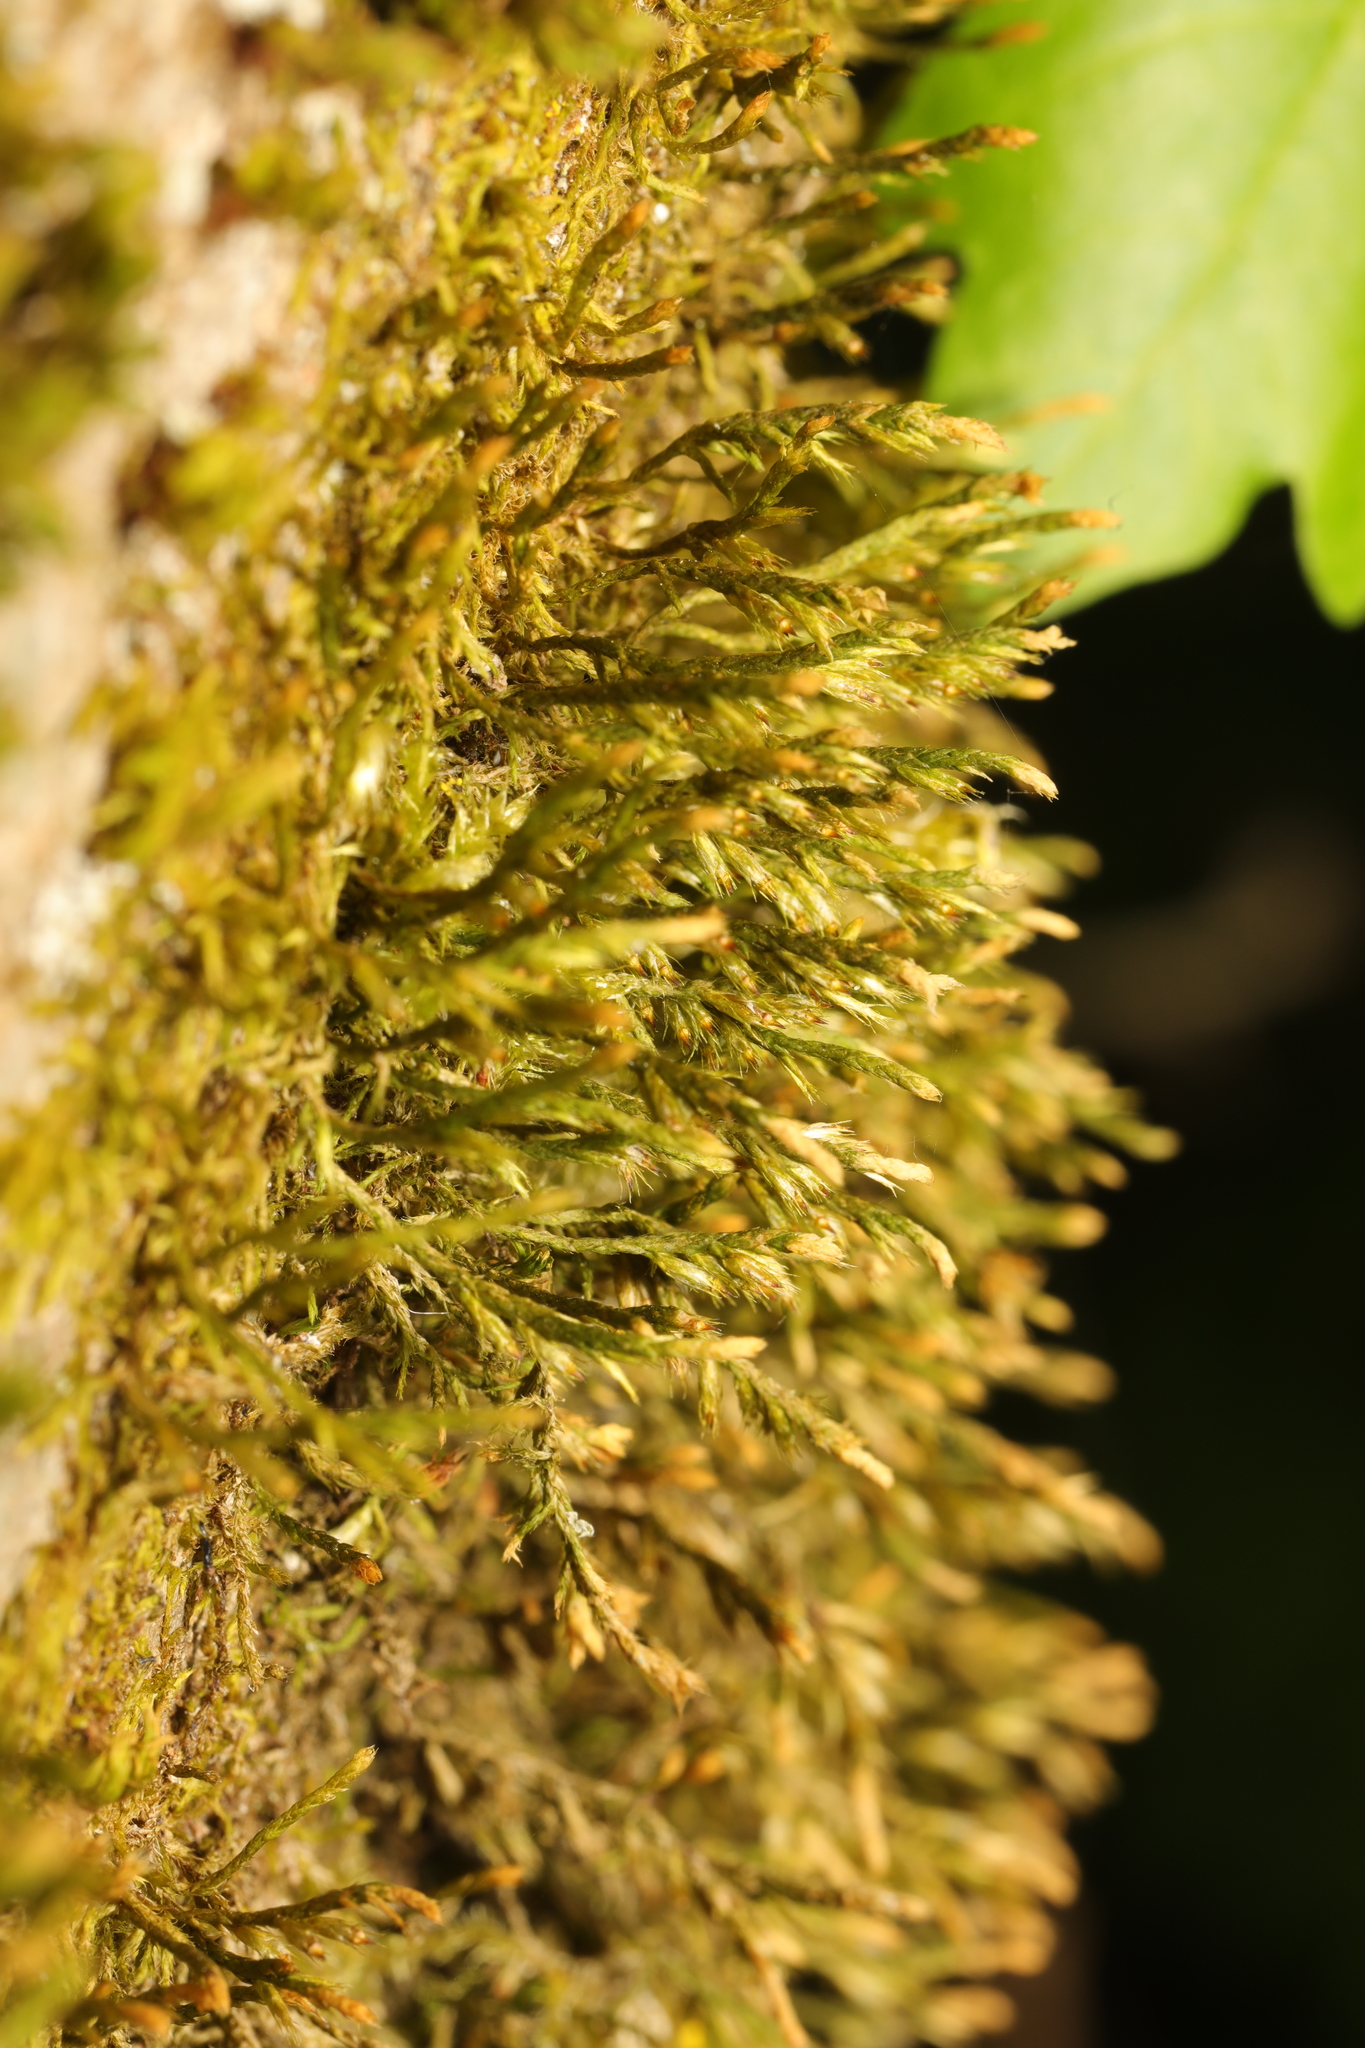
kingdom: Plantae
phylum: Bryophyta
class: Bryopsida
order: Hypnales
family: Cryphaeaceae
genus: Cryphaea
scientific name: Cryphaea heteromalla
